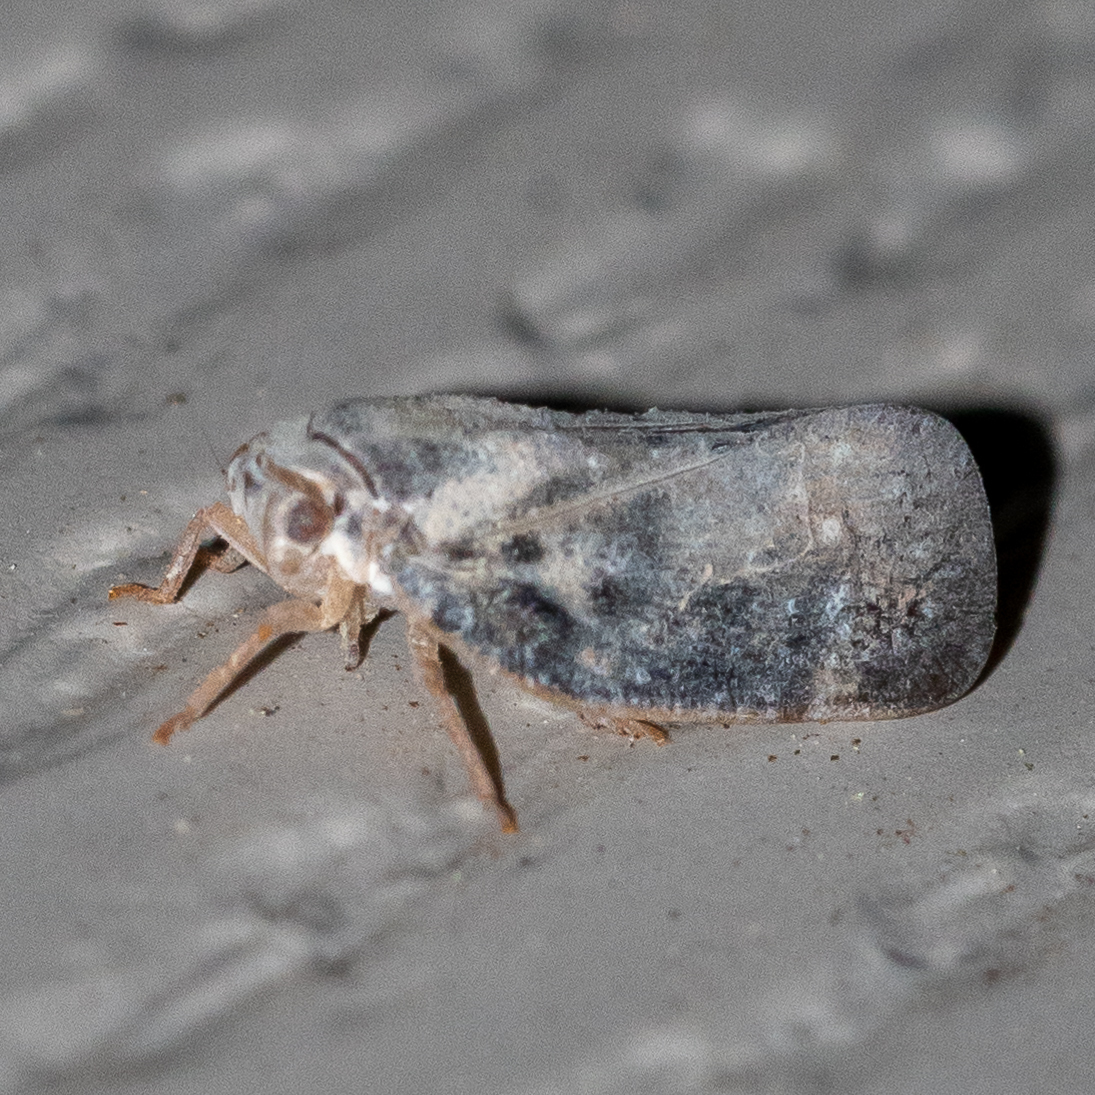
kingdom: Animalia
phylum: Arthropoda
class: Insecta
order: Hemiptera
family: Flatidae
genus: Metcalfa
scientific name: Metcalfa pruinosa
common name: Citrus flatid planthopper
